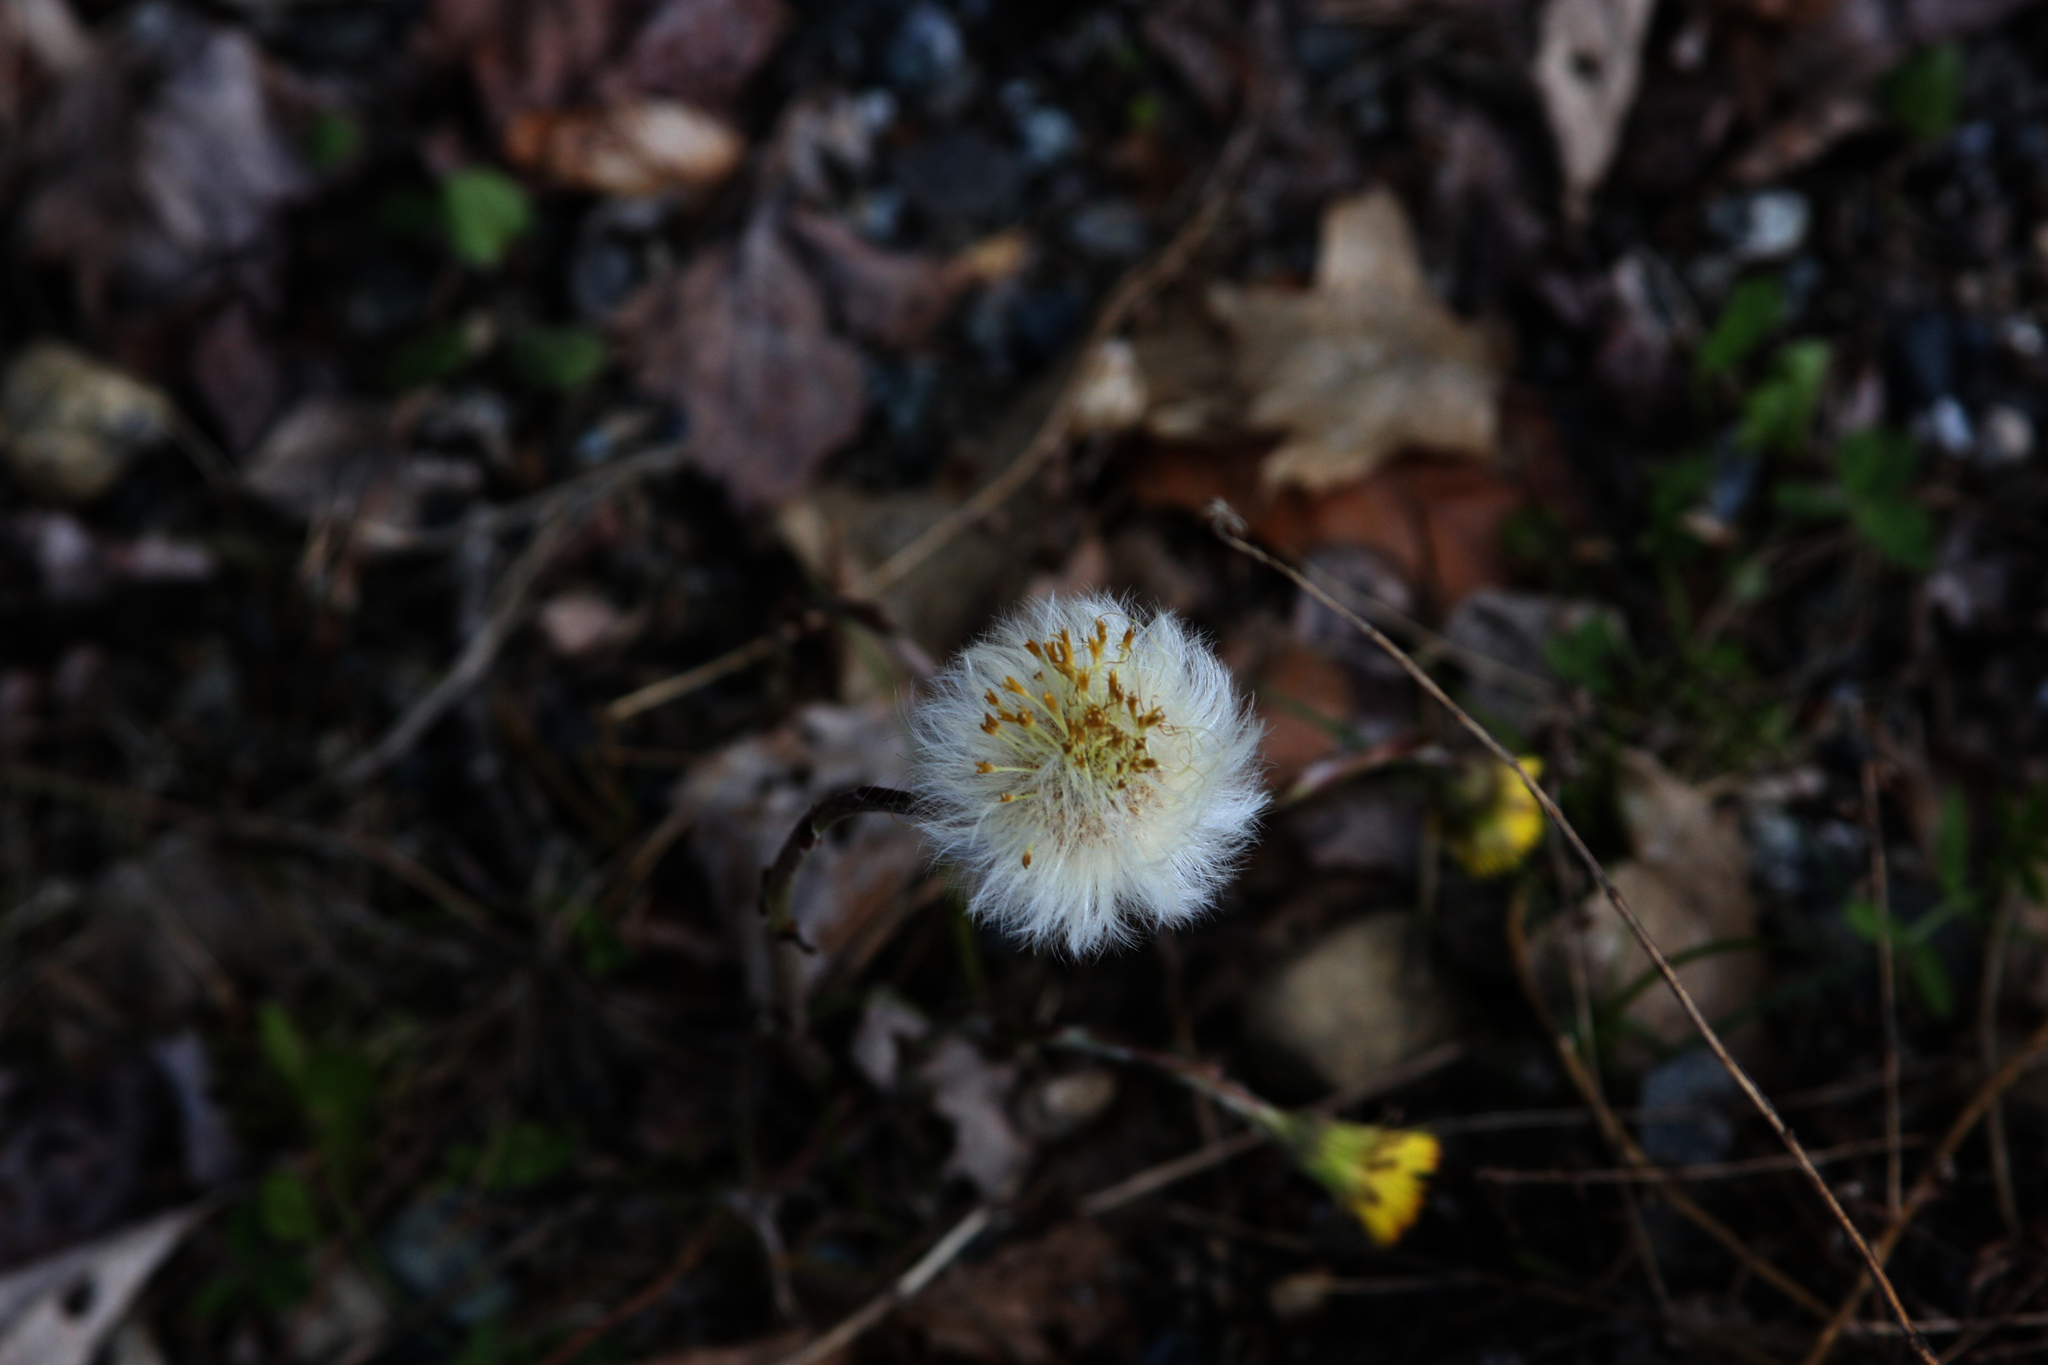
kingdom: Plantae
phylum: Tracheophyta
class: Magnoliopsida
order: Asterales
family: Asteraceae
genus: Tussilago
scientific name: Tussilago farfara
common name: Coltsfoot
